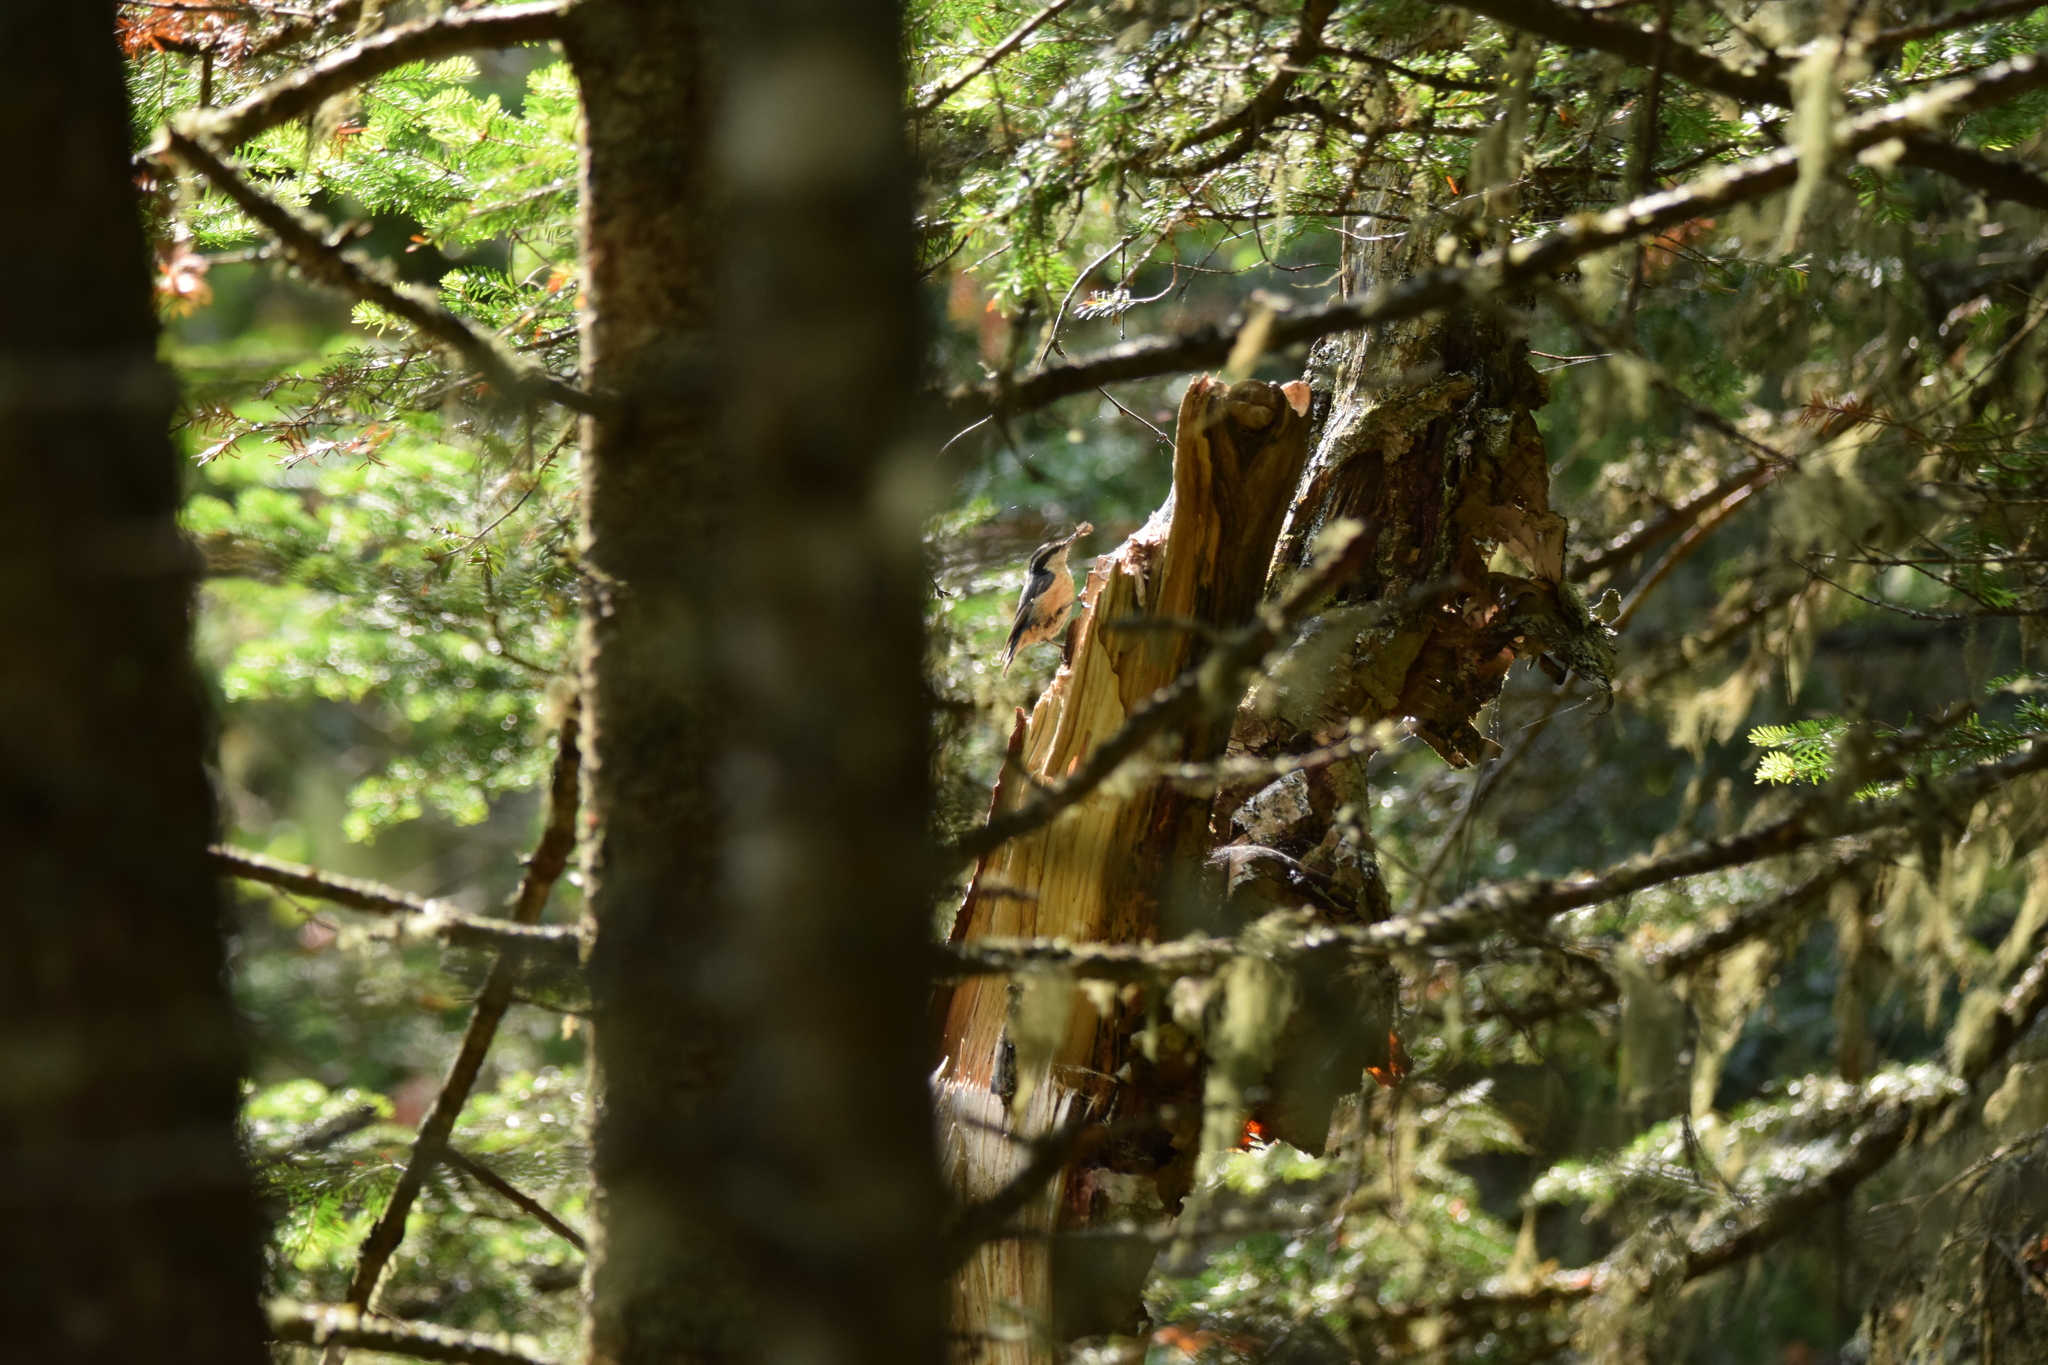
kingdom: Animalia
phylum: Chordata
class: Aves
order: Passeriformes
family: Sittidae
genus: Sitta
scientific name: Sitta canadensis
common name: Red-breasted nuthatch
